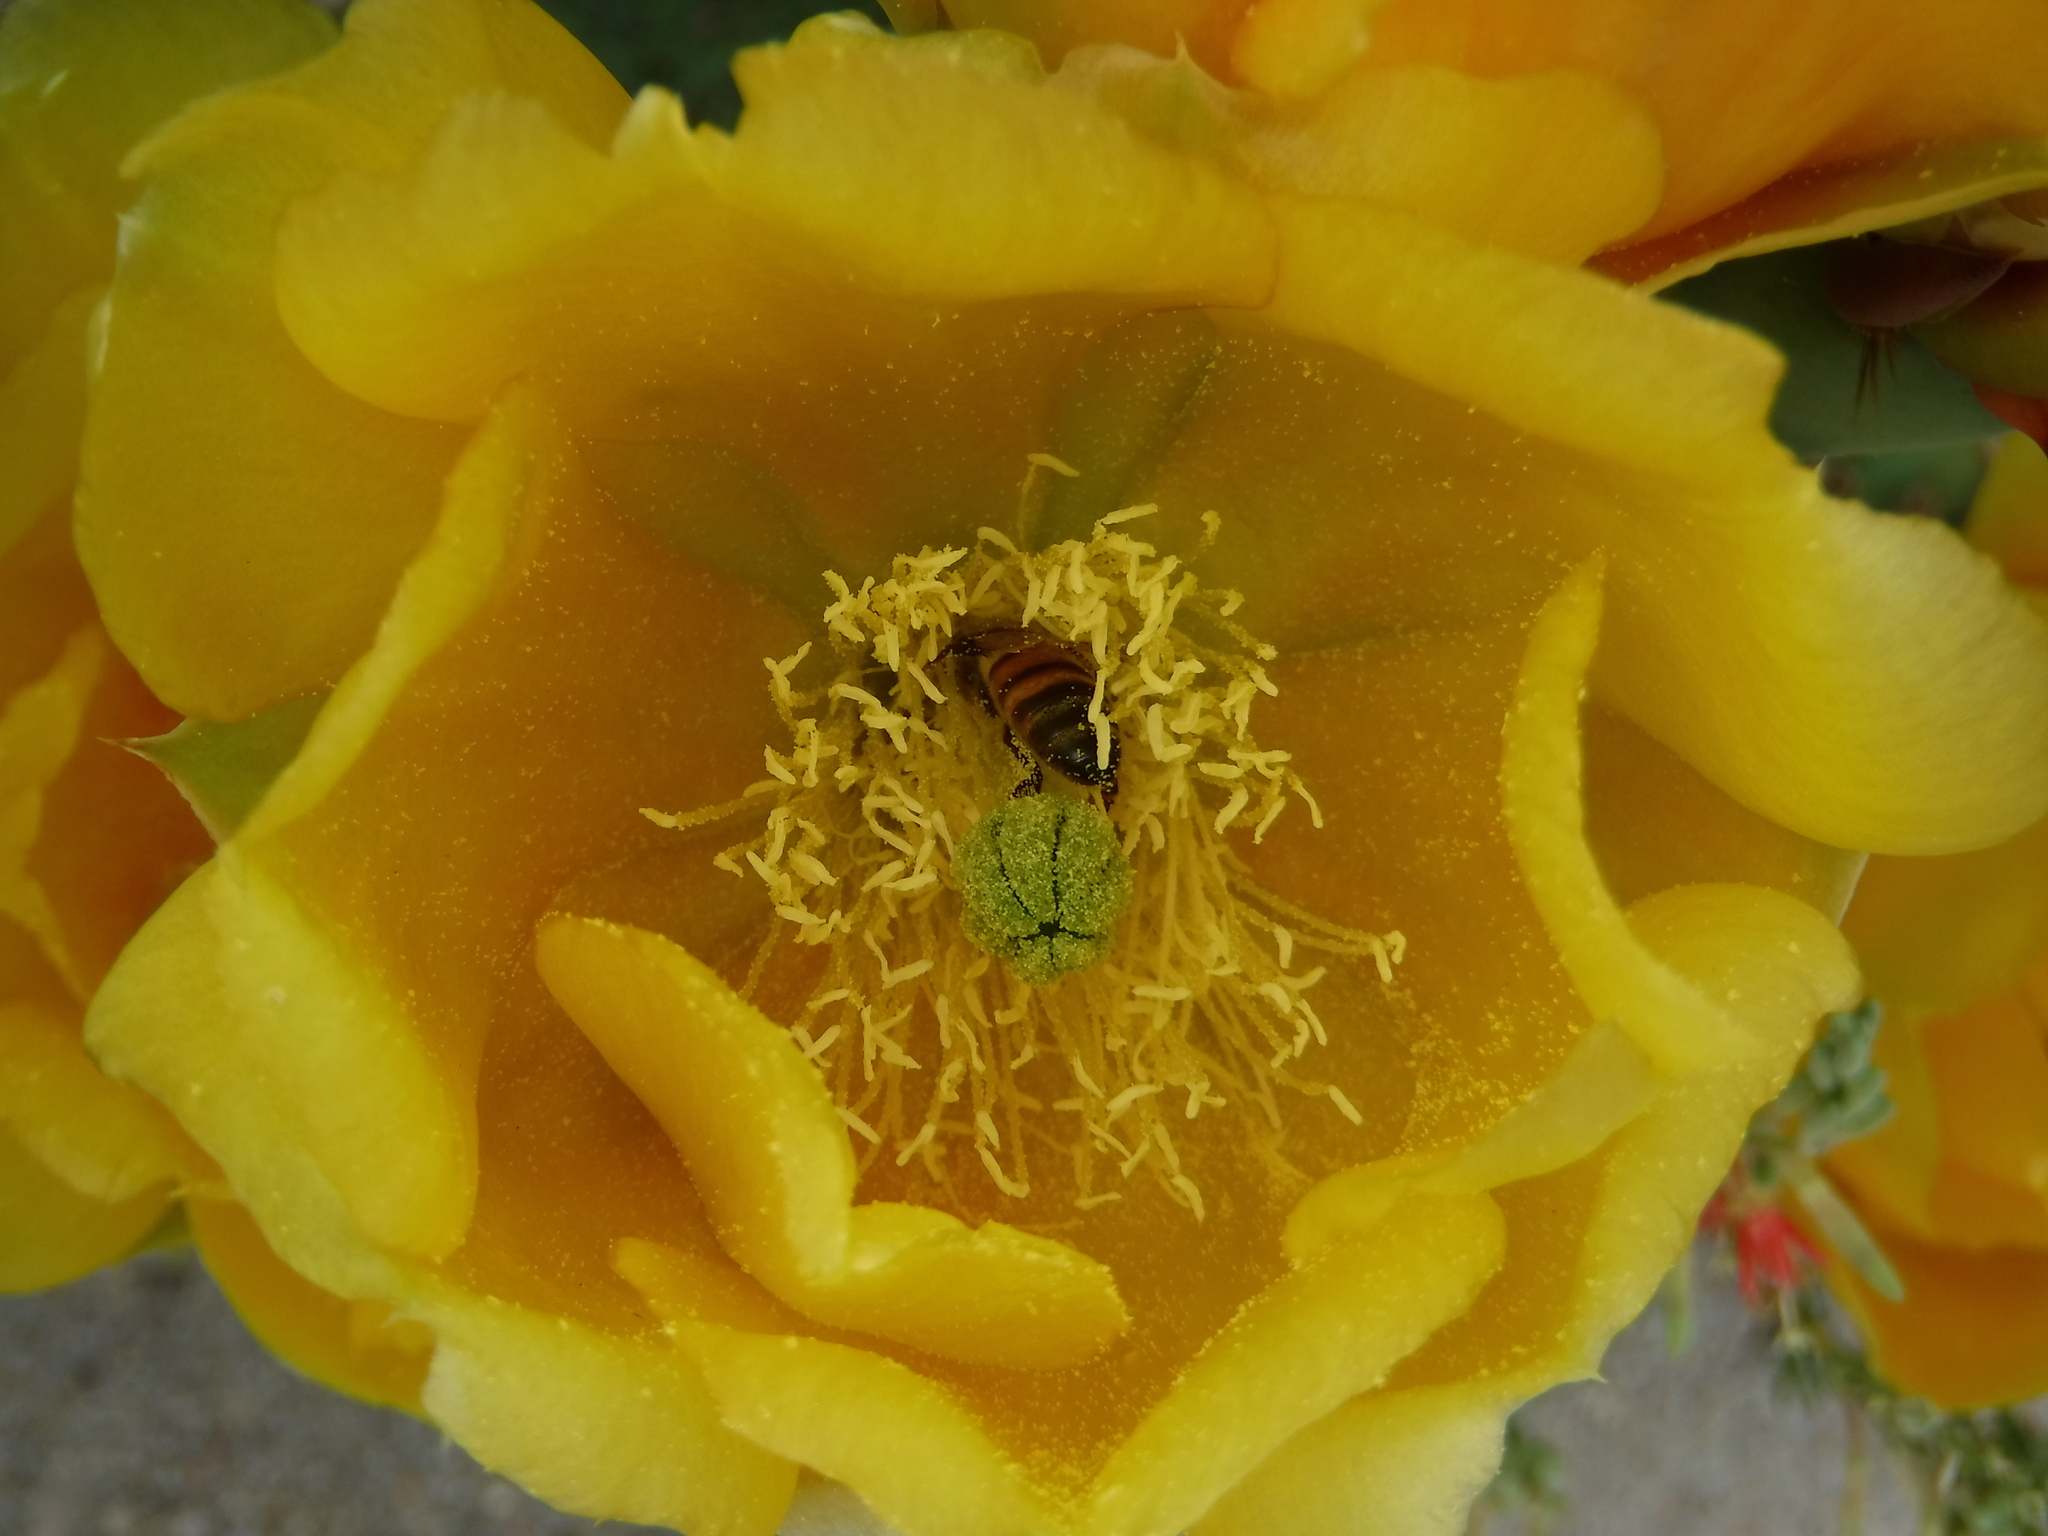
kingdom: Animalia
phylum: Arthropoda
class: Insecta
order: Hymenoptera
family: Apidae
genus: Apis
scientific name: Apis mellifera
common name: Honey bee
